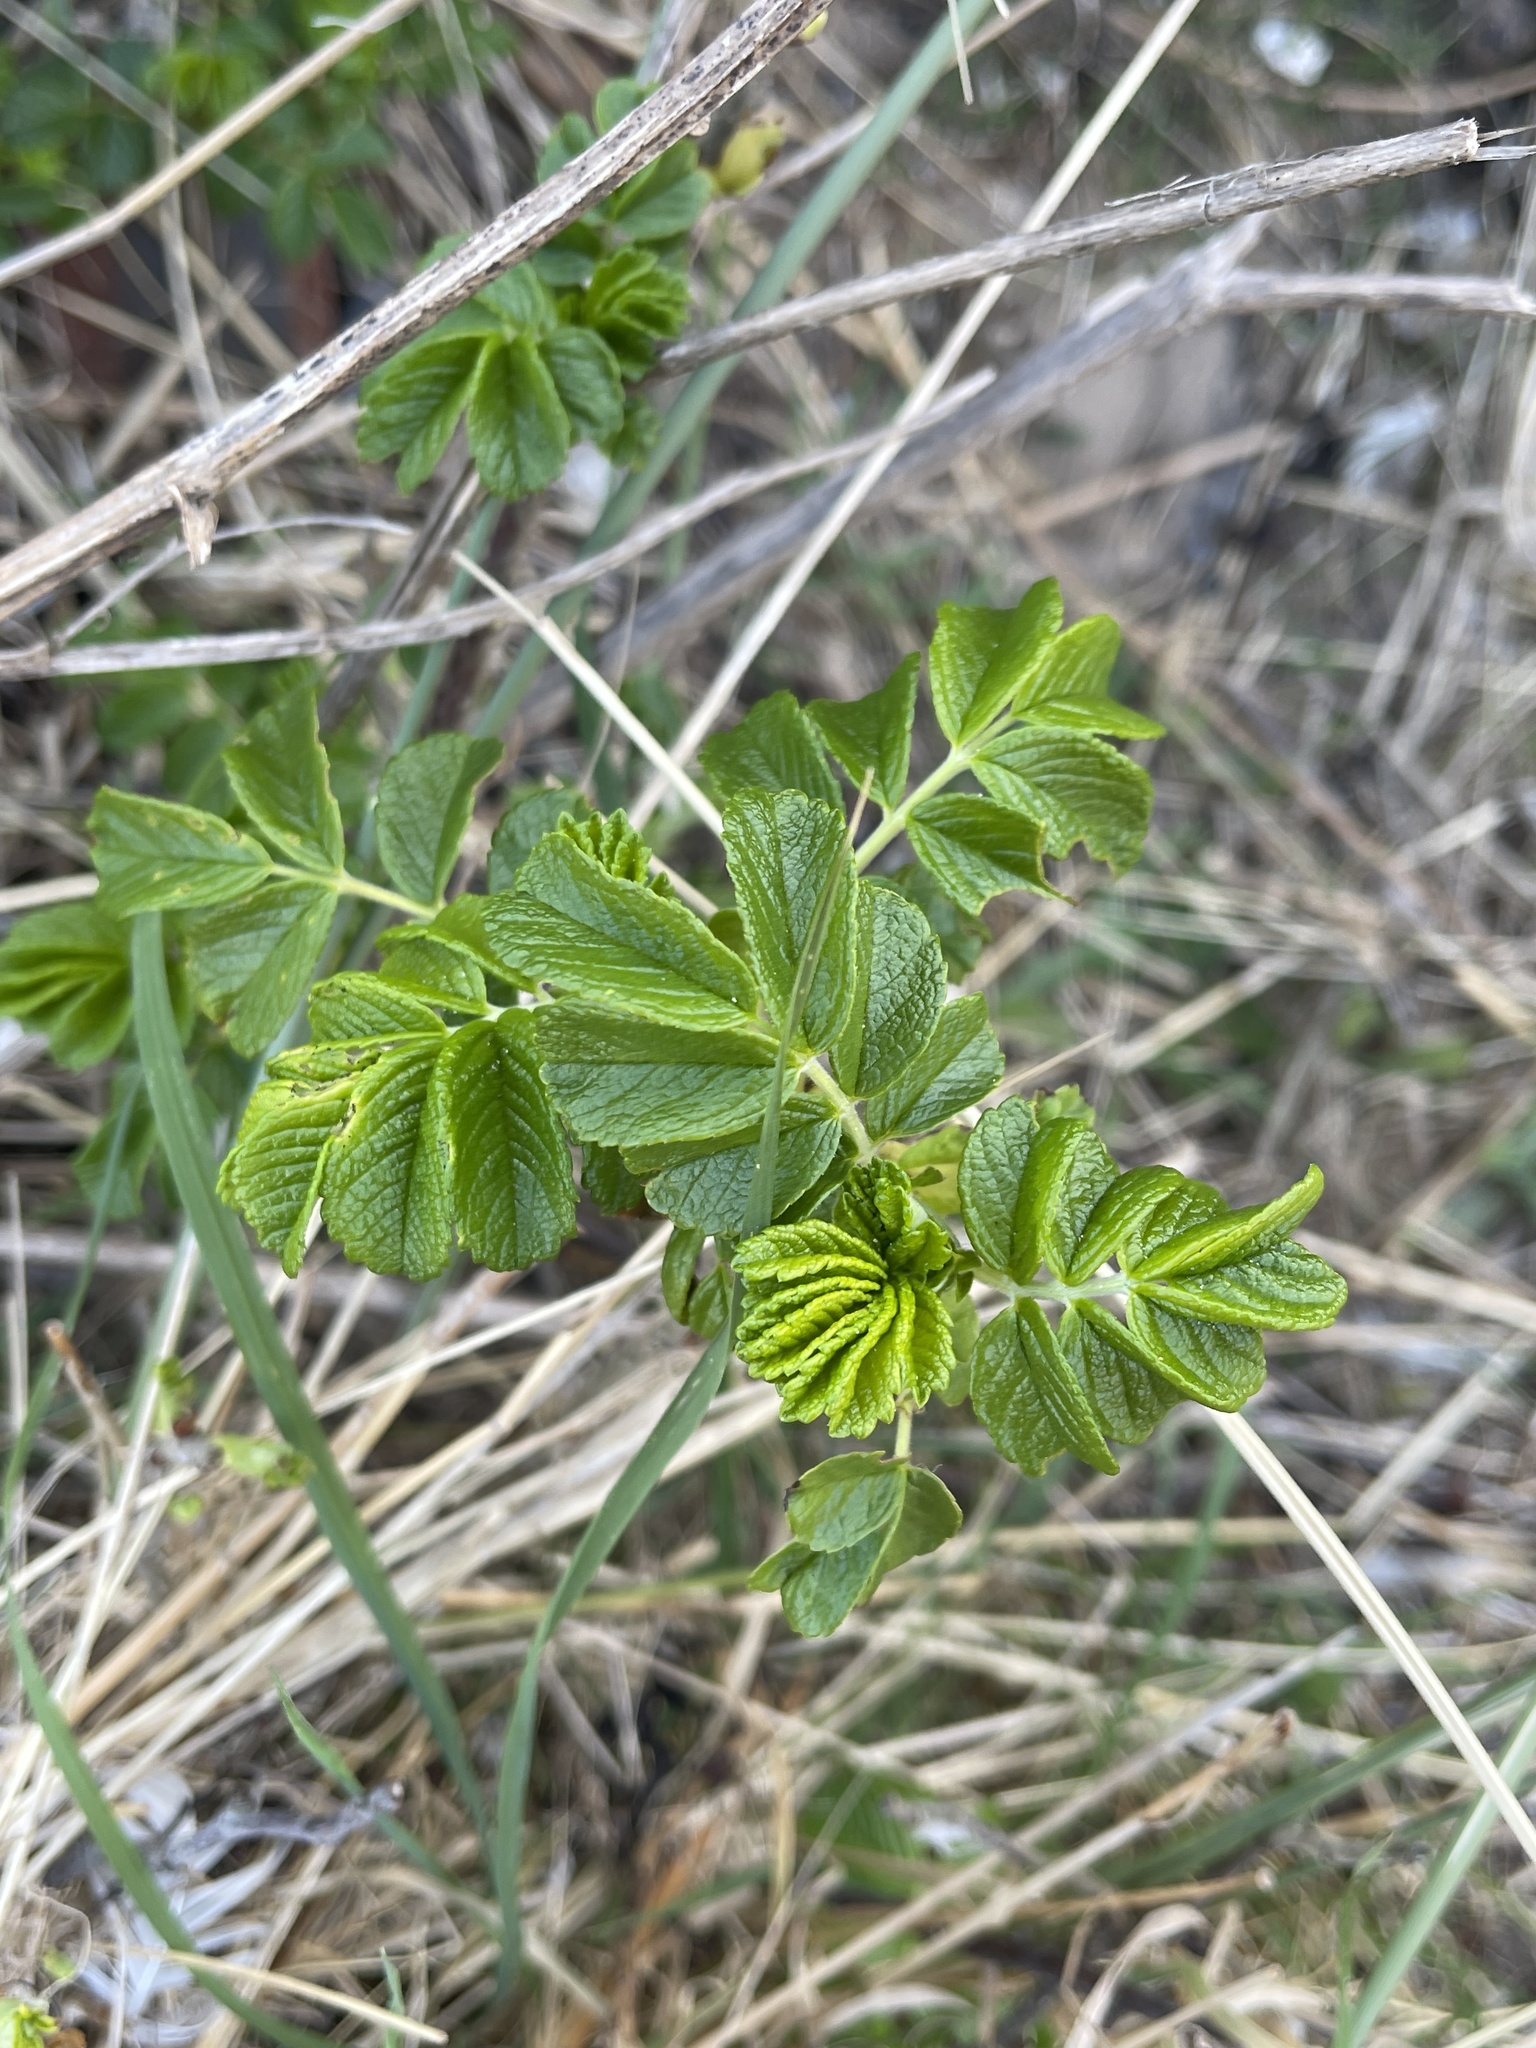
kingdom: Plantae
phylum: Tracheophyta
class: Magnoliopsida
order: Rosales
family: Rosaceae
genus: Rosa
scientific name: Rosa rugosa
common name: Japanese rose
